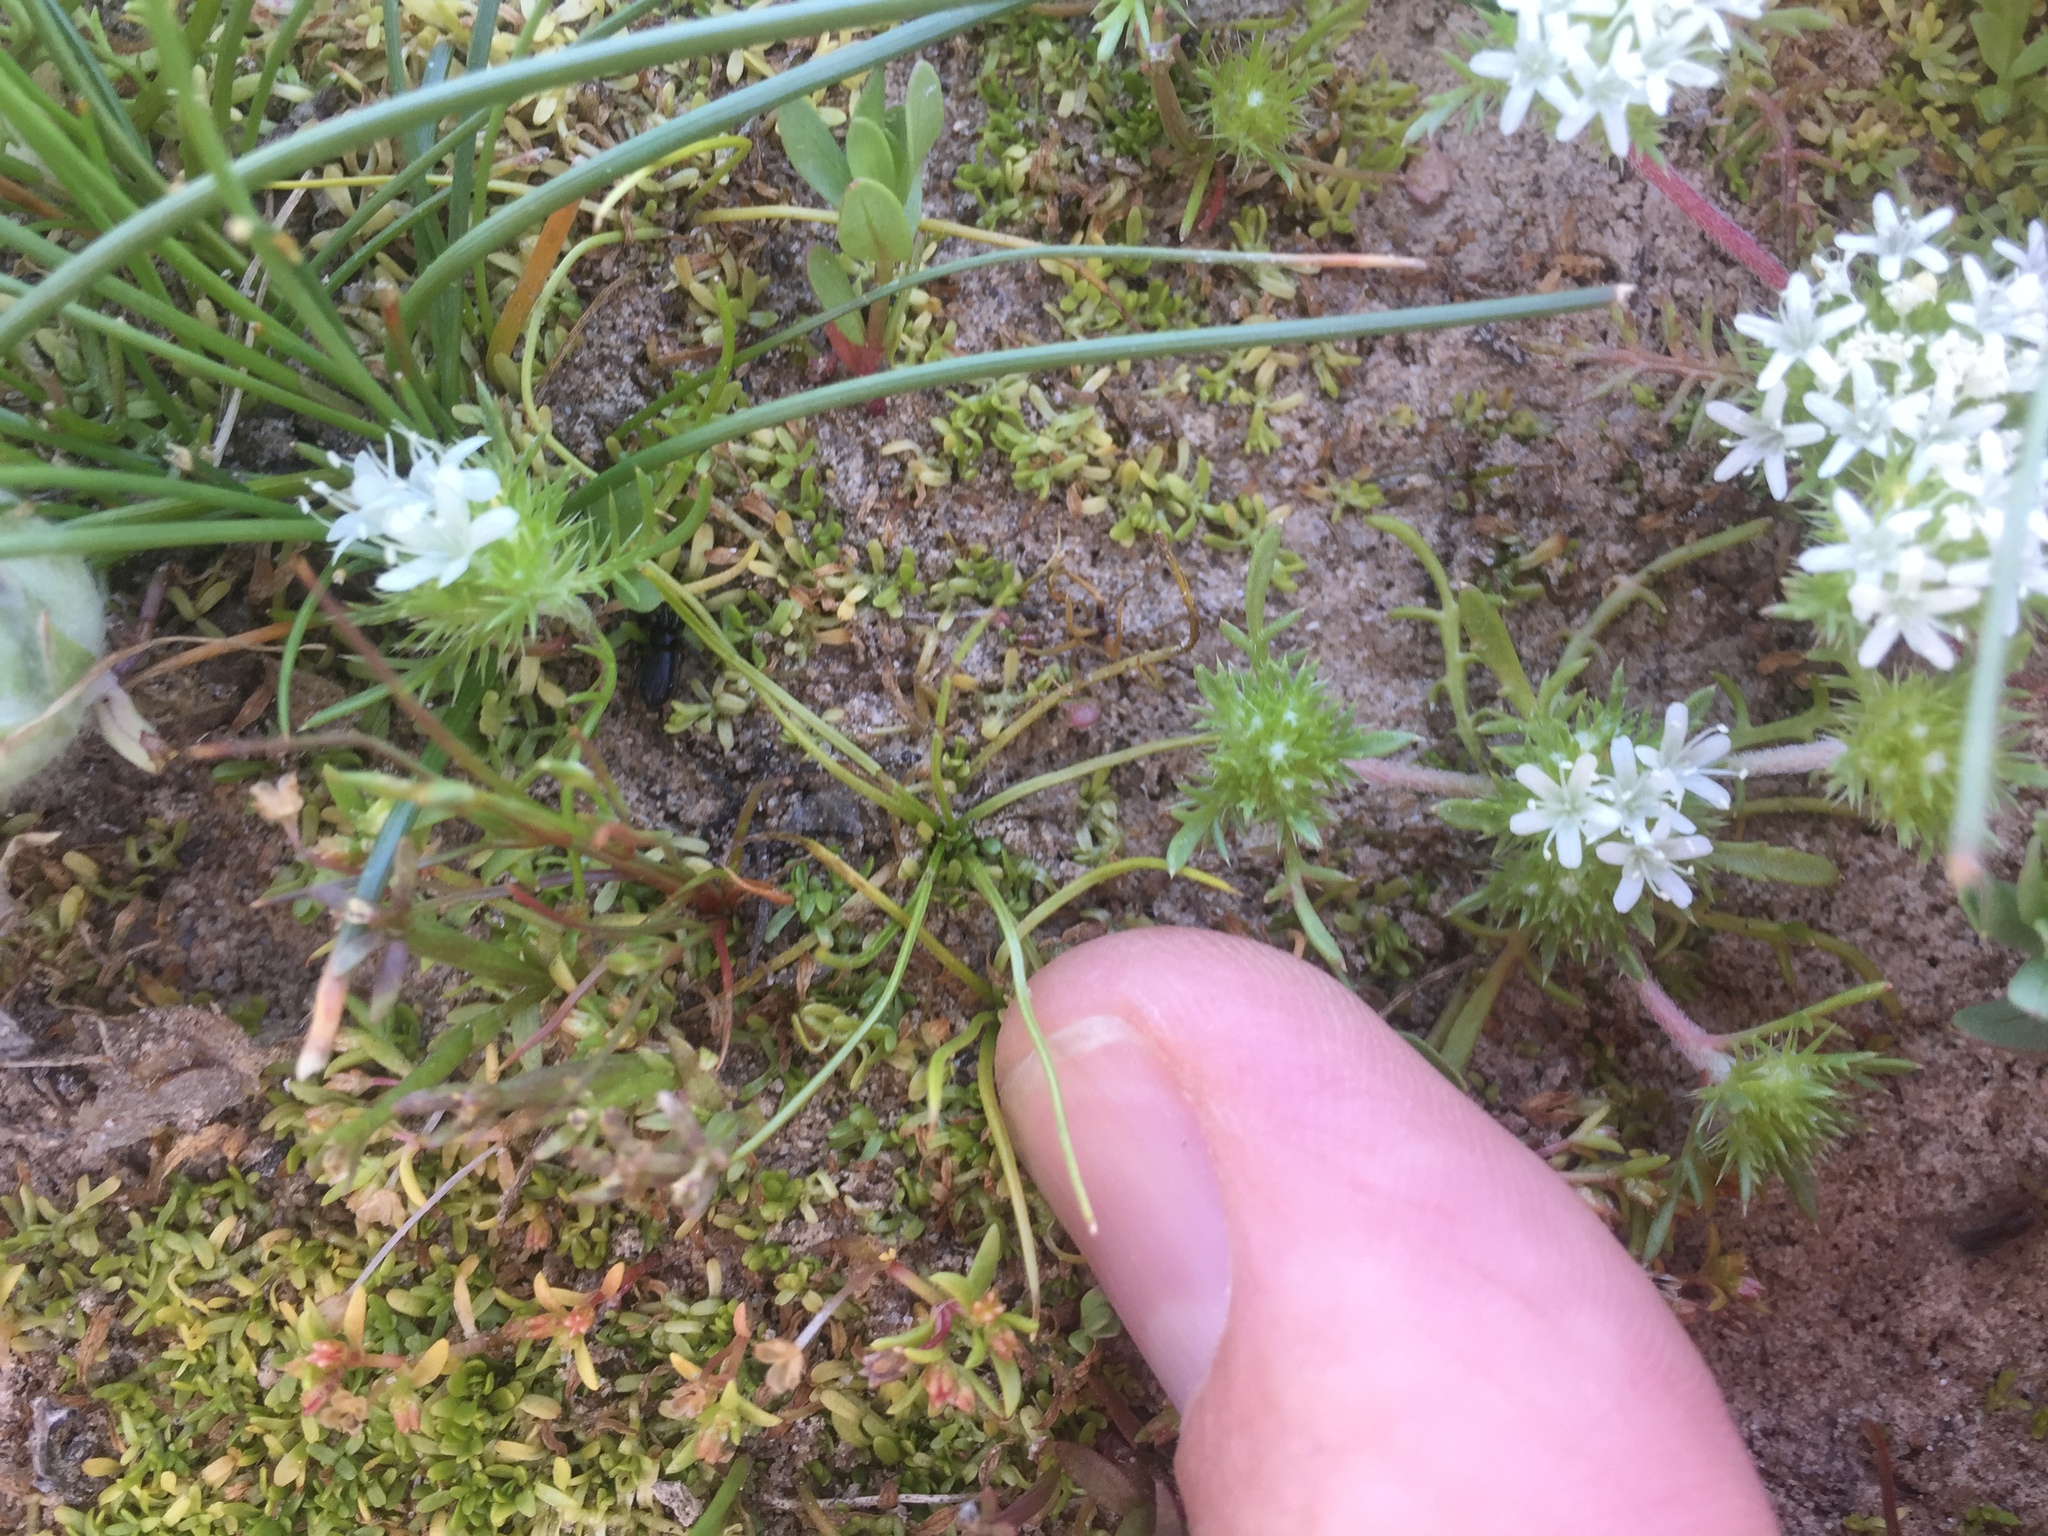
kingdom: Plantae
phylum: Tracheophyta
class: Lycopodiopsida
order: Isoetales
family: Isoetaceae
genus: Isoetes
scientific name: Isoetes orcuttii
